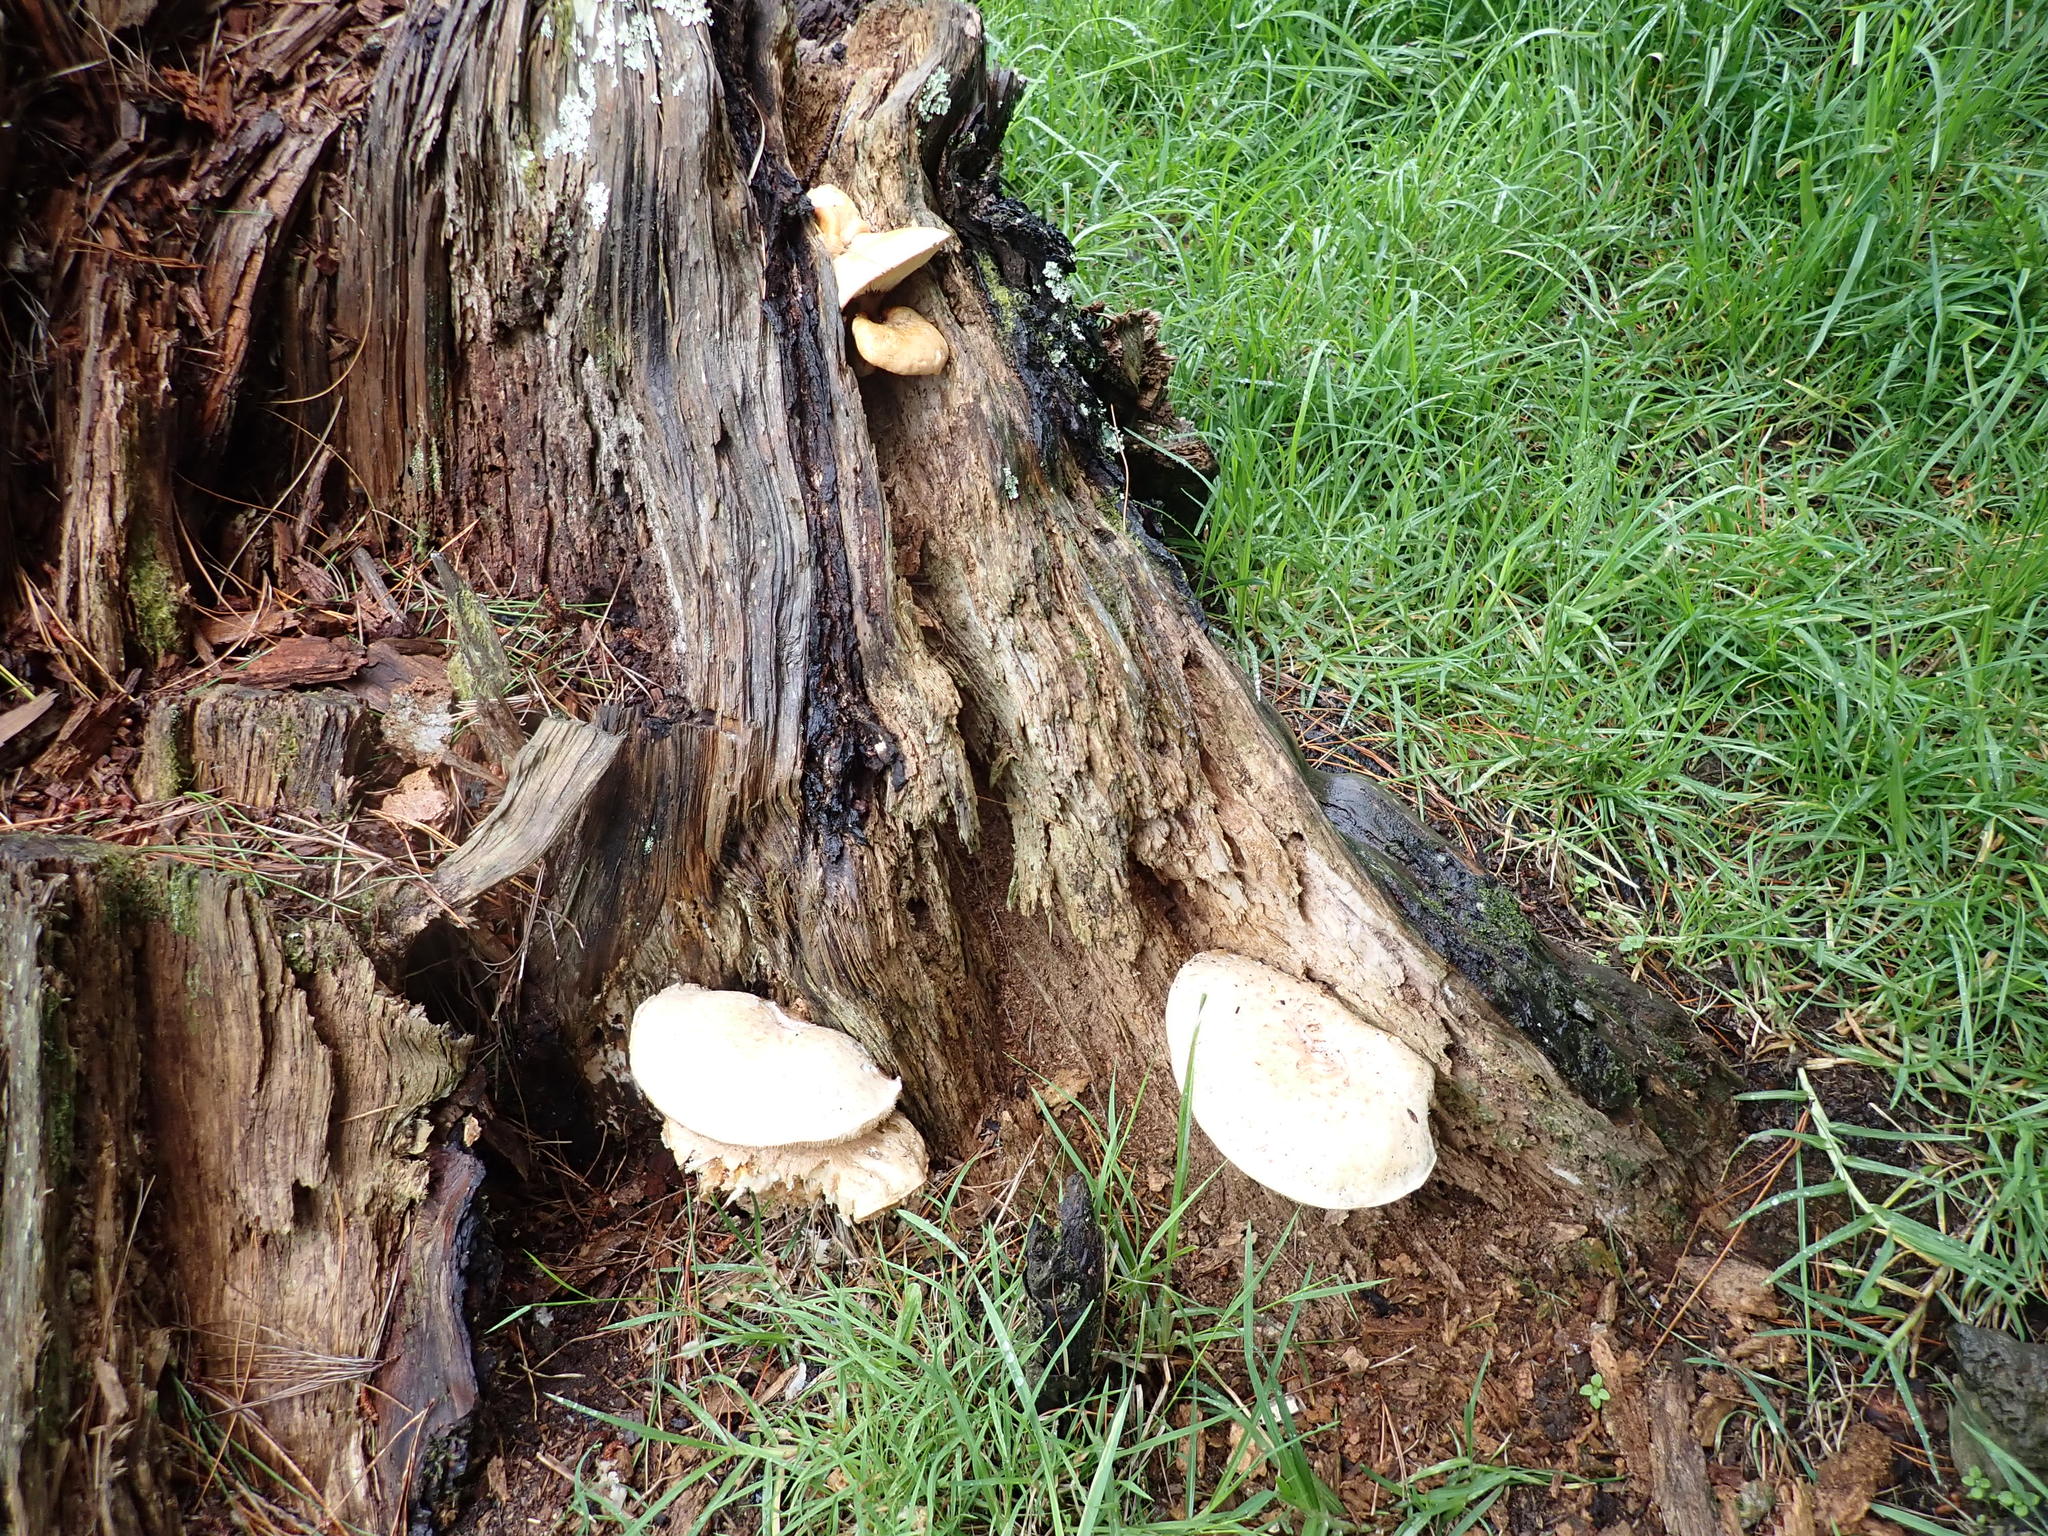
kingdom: Fungi
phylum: Basidiomycota
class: Agaricomycetes
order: Gloeophyllales
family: Gloeophyllaceae
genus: Neolentinus
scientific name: Neolentinus lepideus
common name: Scaly sawgill
